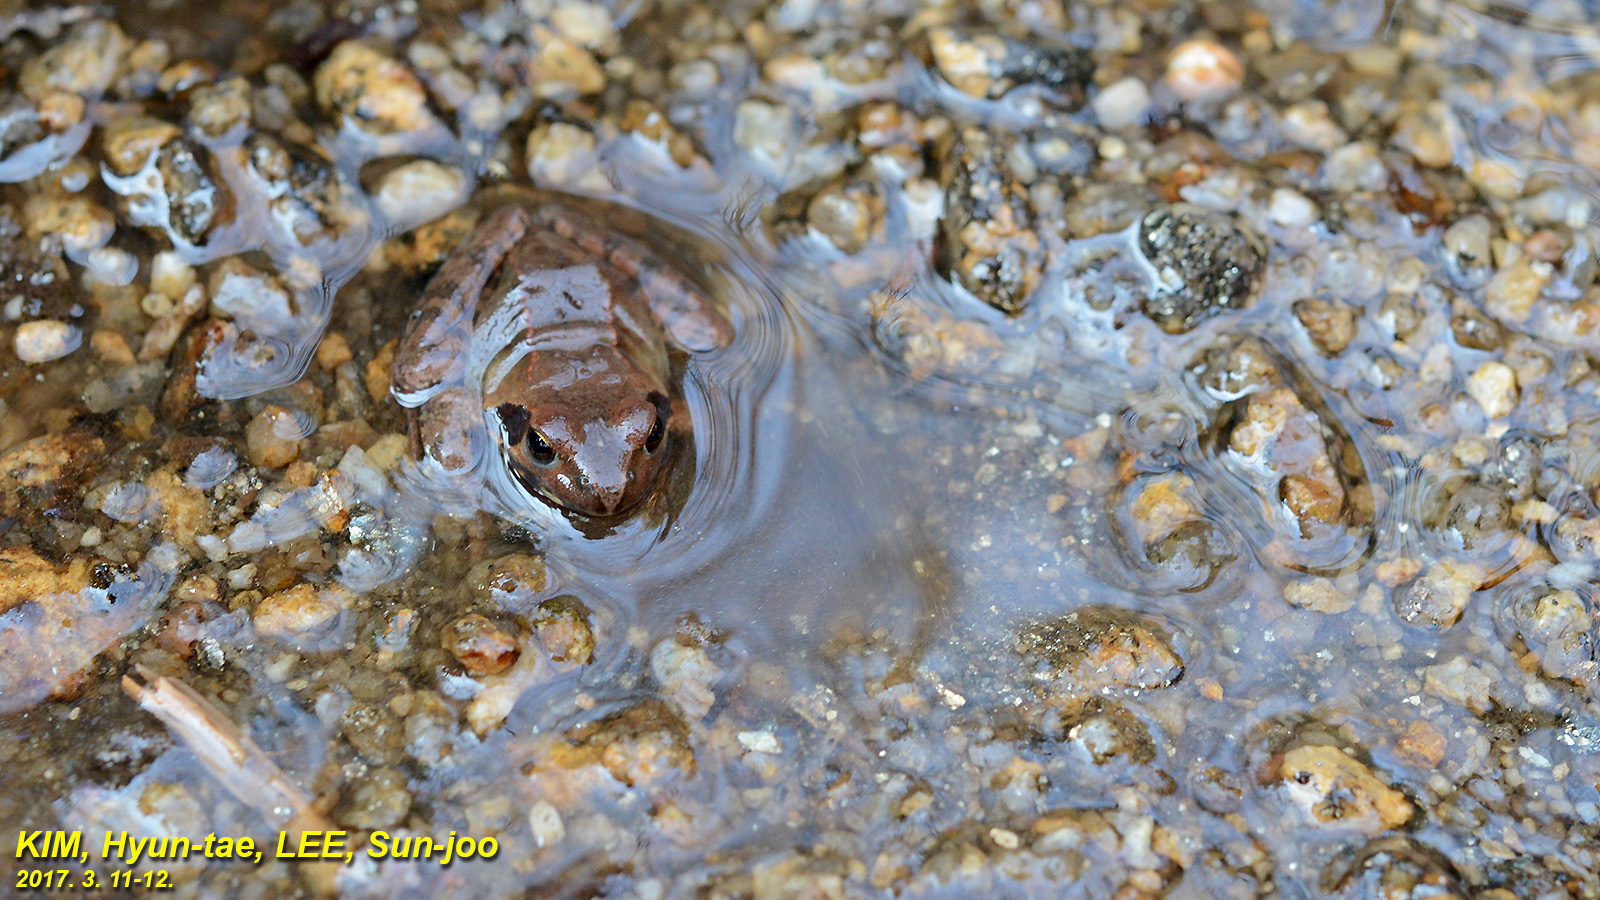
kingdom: Animalia
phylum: Chordata
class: Amphibia
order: Anura
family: Ranidae
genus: Rana
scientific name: Rana uenoi
